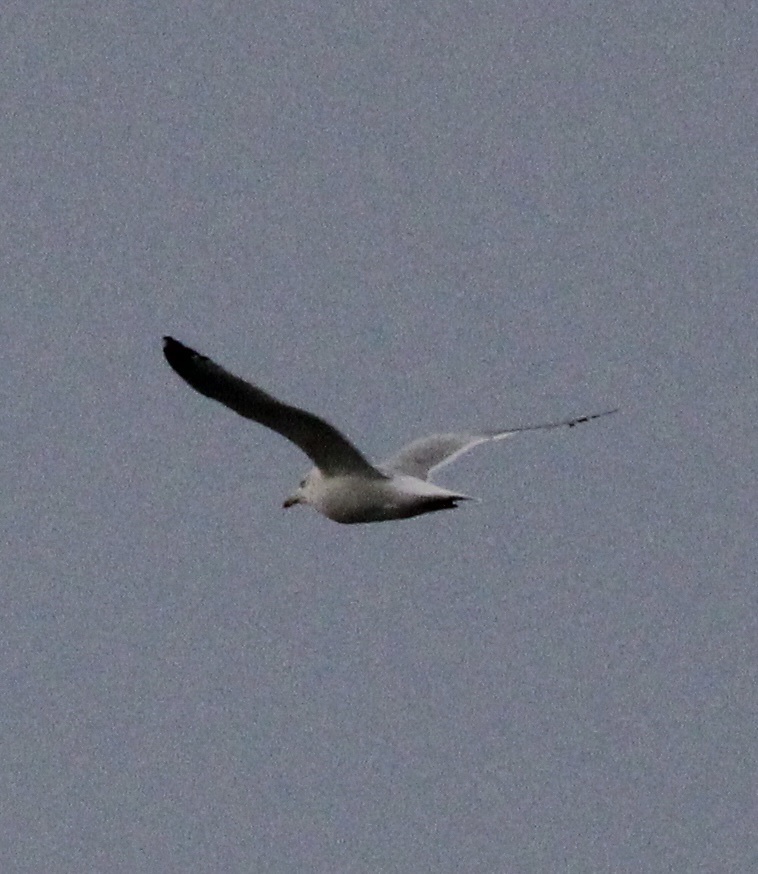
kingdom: Animalia
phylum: Chordata
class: Aves
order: Charadriiformes
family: Laridae
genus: Larus
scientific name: Larus delawarensis
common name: Ring-billed gull
